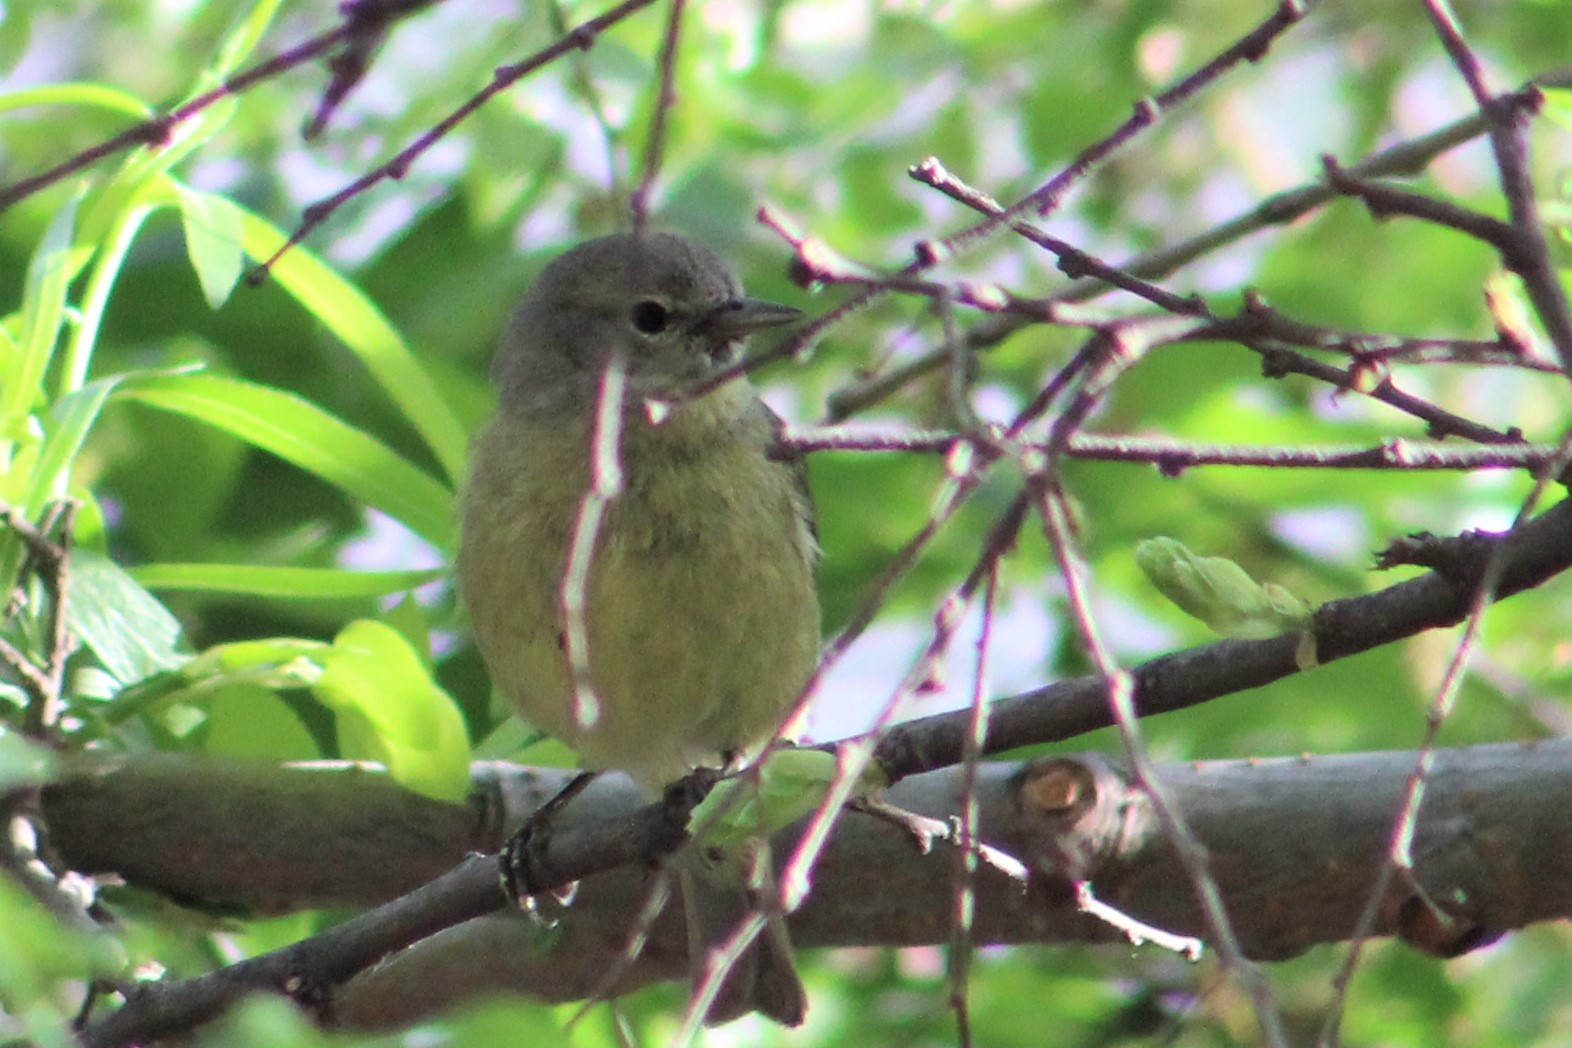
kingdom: Animalia
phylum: Chordata
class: Aves
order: Passeriformes
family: Parulidae
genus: Leiothlypis
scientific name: Leiothlypis celata
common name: Orange-crowned warbler
